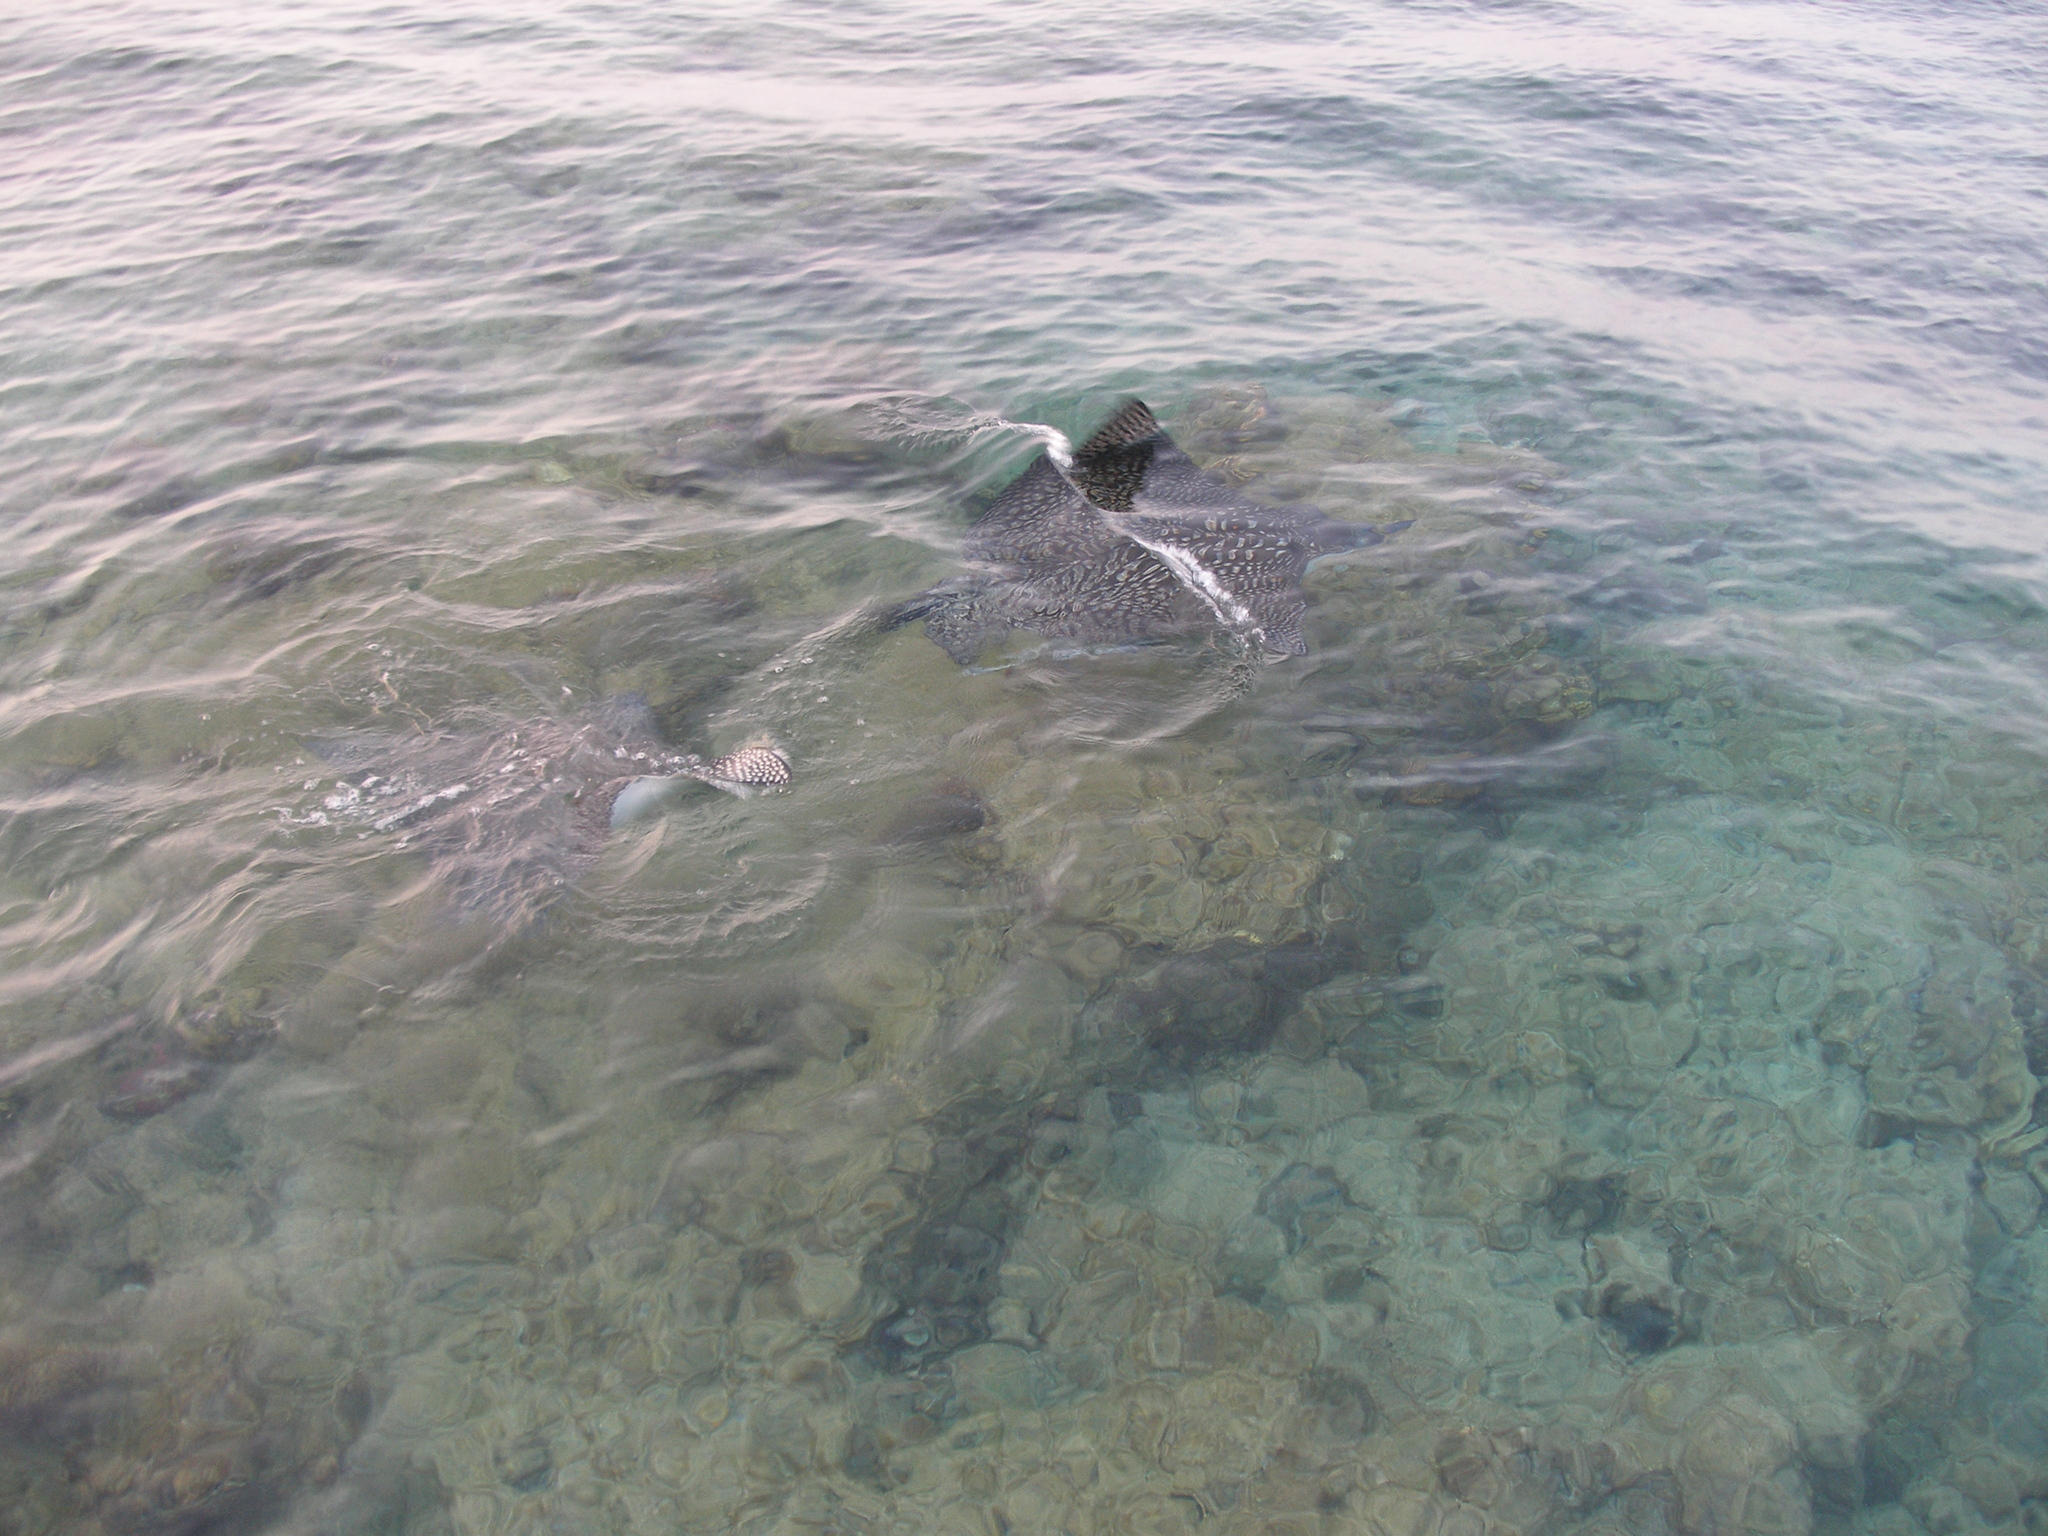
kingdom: Animalia
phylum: Chordata
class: Elasmobranchii
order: Myliobatiformes
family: Myliobatidae
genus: Aetobatus
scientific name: Aetobatus ocellatus
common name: Ocellated eagle ray
